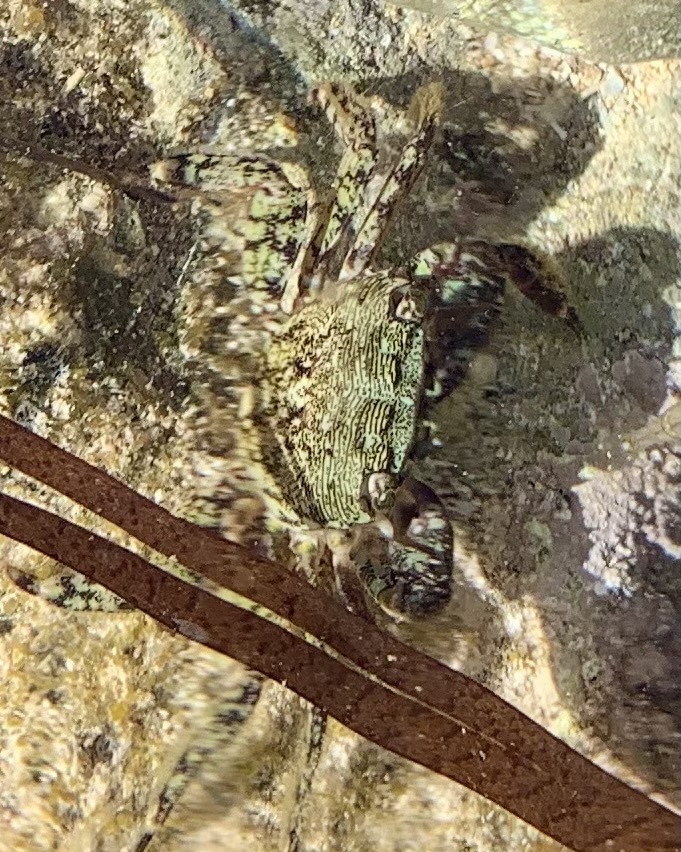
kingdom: Animalia
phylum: Arthropoda
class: Malacostraca
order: Decapoda
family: Grapsidae
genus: Pachygrapsus
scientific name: Pachygrapsus marmoratus
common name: Marbled rock crab
